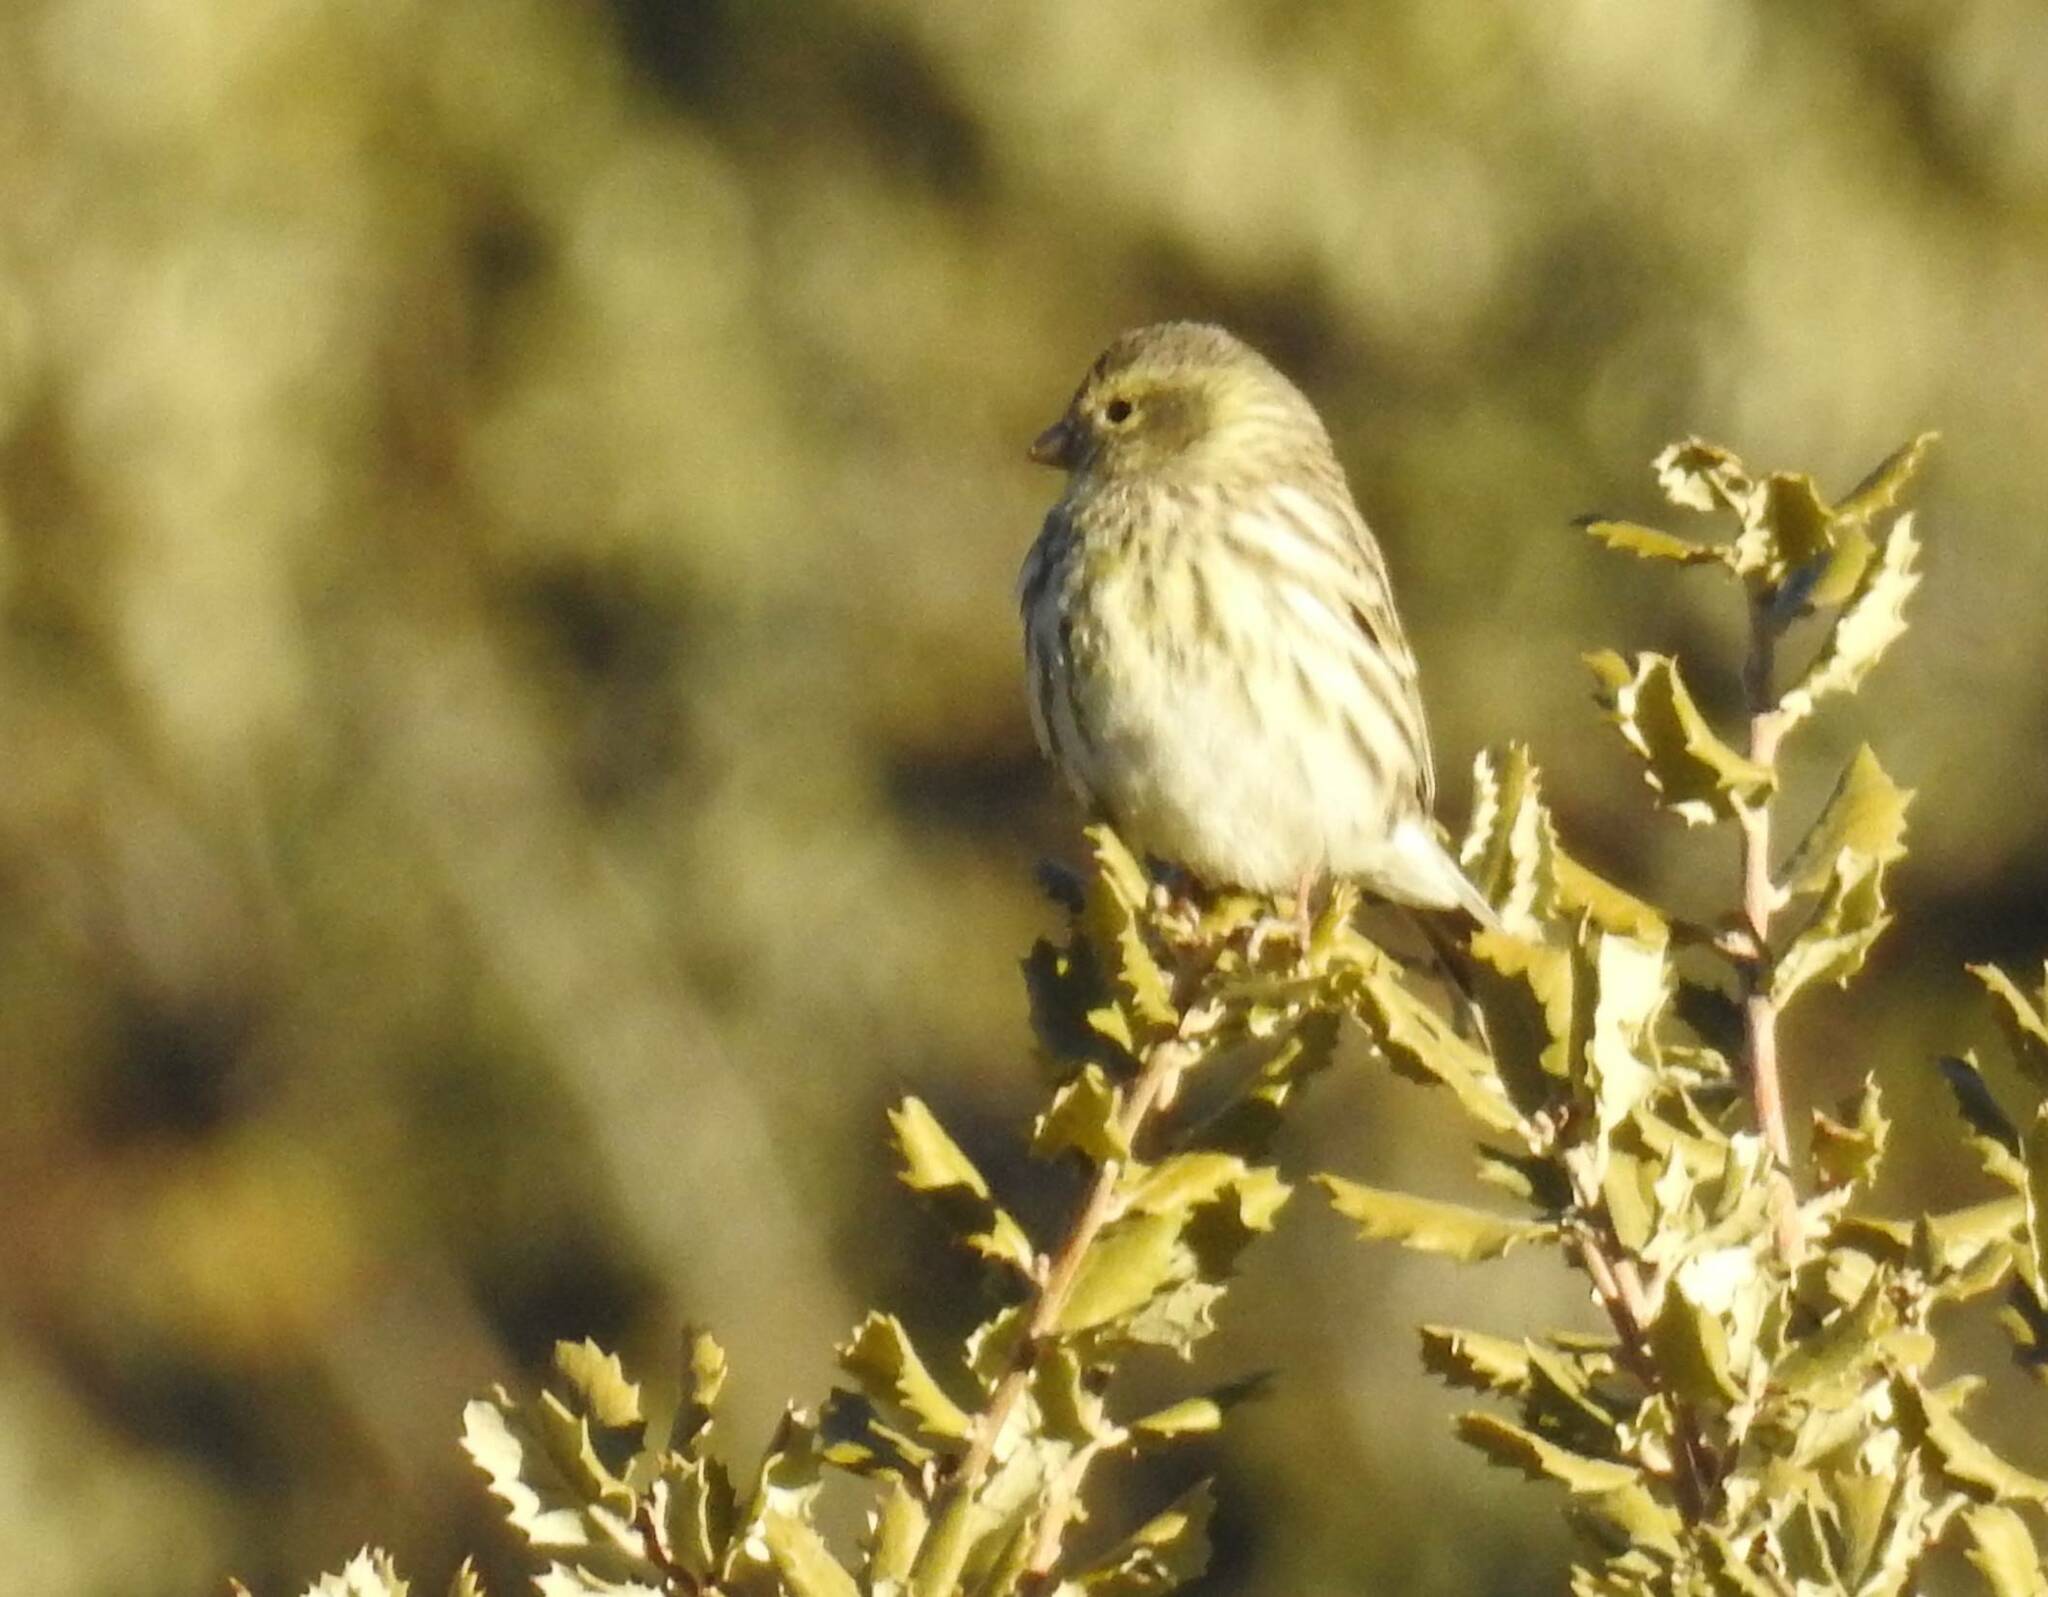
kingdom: Animalia
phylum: Chordata
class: Aves
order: Passeriformes
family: Fringillidae
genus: Serinus
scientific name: Serinus serinus
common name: European serin
